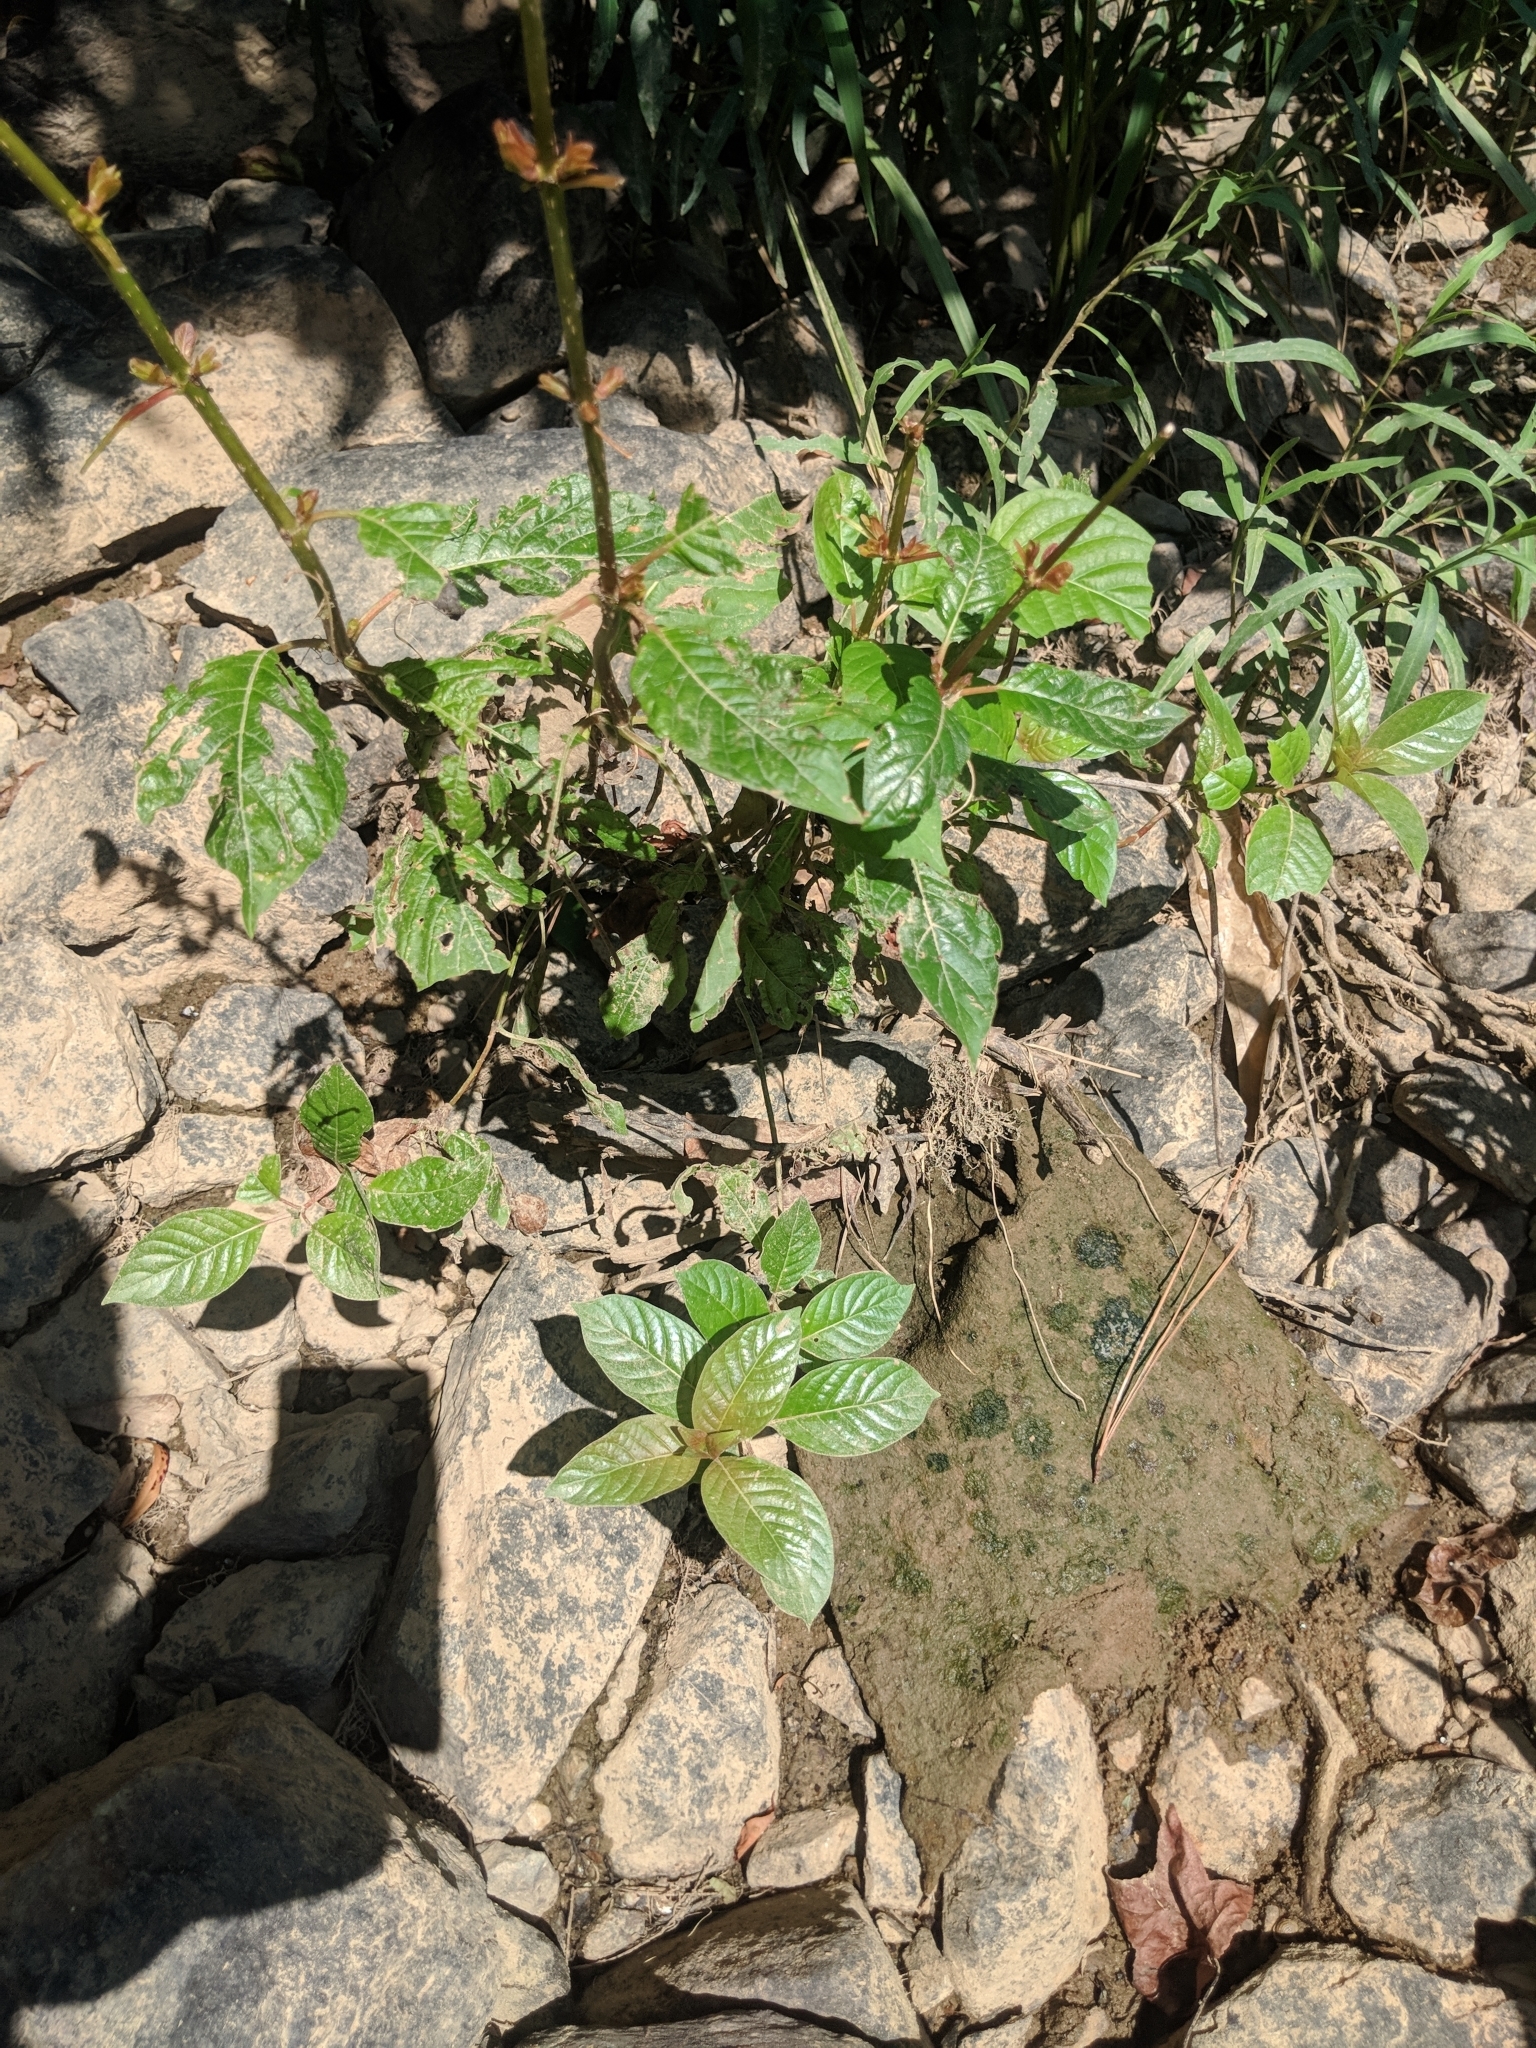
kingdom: Plantae
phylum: Tracheophyta
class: Magnoliopsida
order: Gentianales
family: Rubiaceae
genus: Cephalanthus
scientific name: Cephalanthus occidentalis
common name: Button-willow
